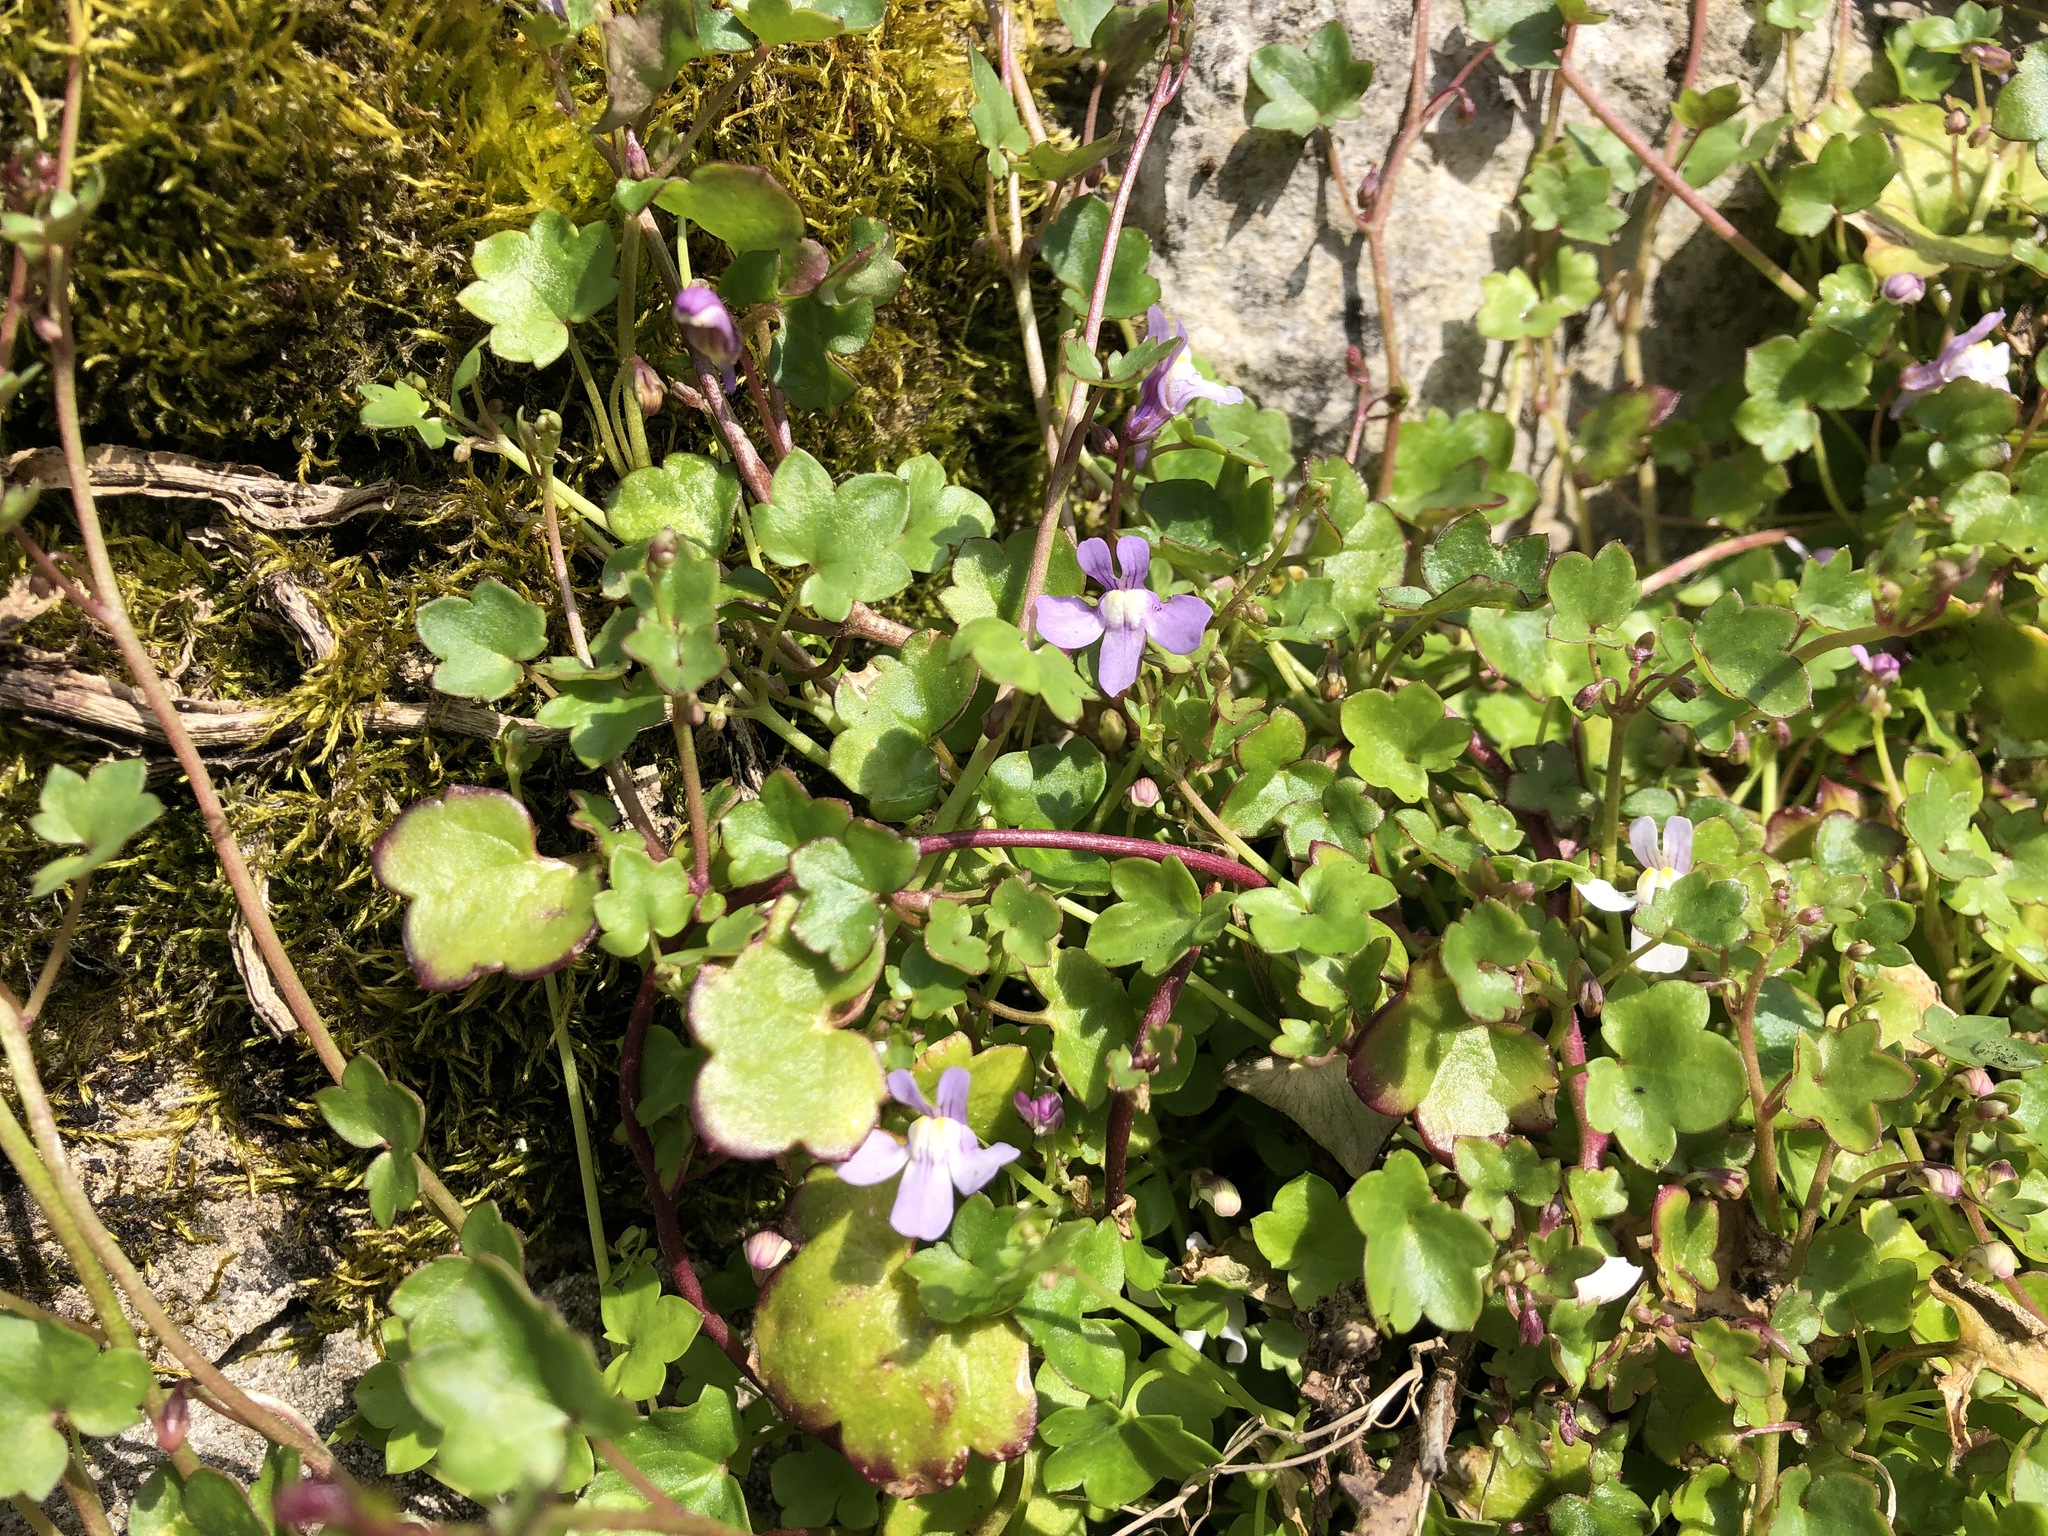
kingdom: Plantae
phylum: Tracheophyta
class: Magnoliopsida
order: Lamiales
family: Plantaginaceae
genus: Cymbalaria
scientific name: Cymbalaria muralis
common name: Ivy-leaved toadflax
